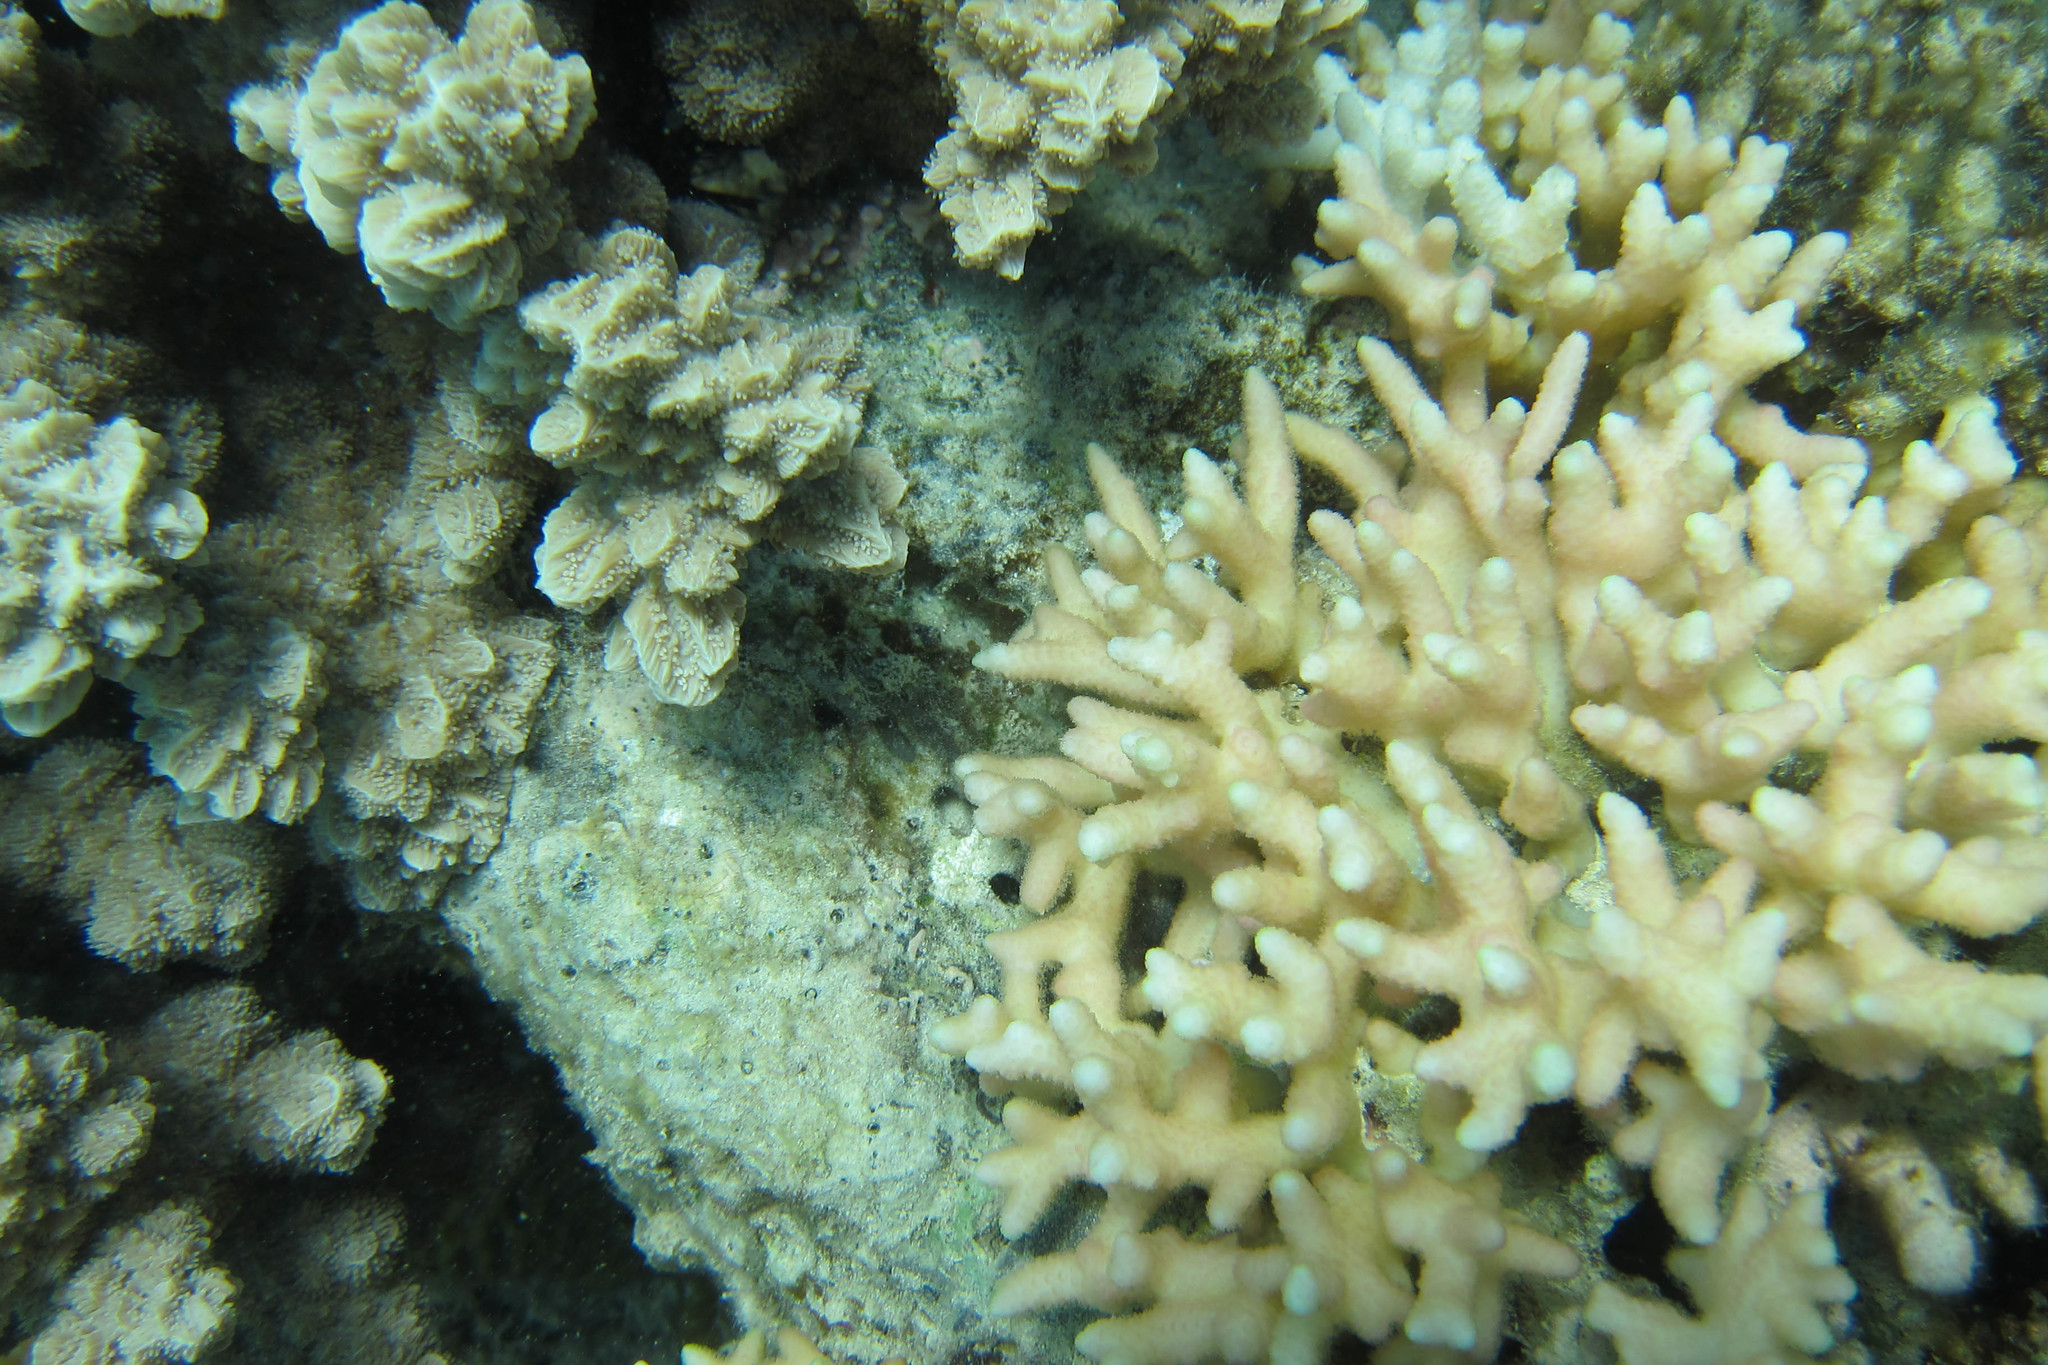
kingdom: Animalia
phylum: Cnidaria
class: Anthozoa
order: Scleractinia
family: Merulinidae
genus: Hydnophora
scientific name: Hydnophora exesa
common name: Spine coral
